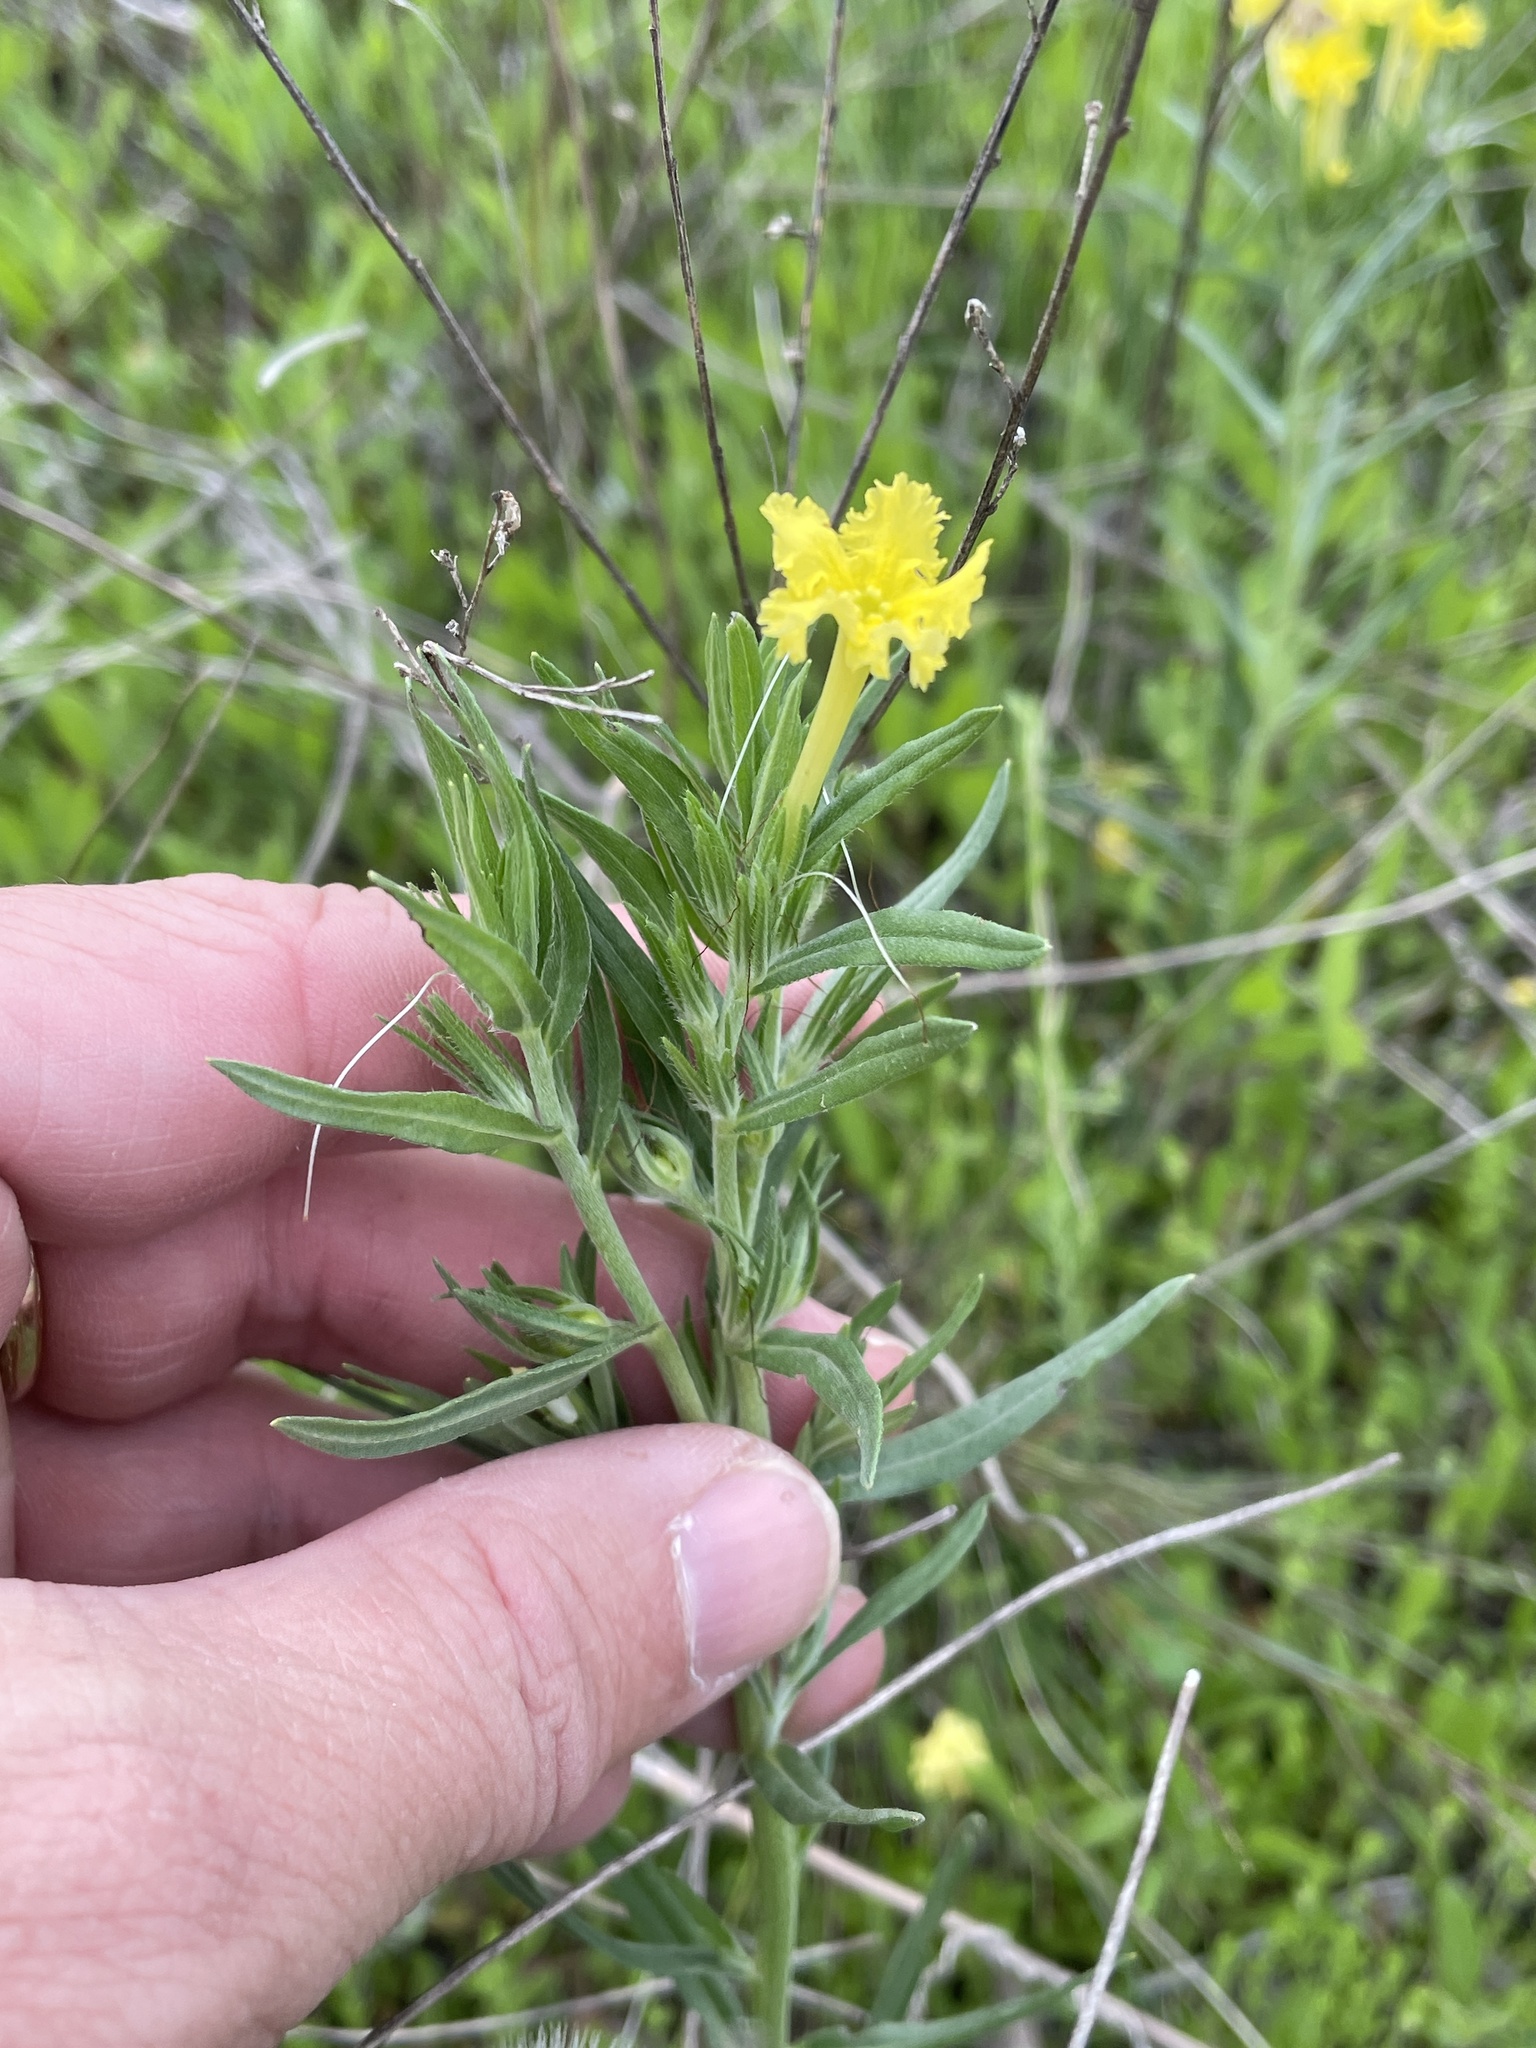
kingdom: Plantae
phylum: Tracheophyta
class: Magnoliopsida
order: Boraginales
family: Boraginaceae
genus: Lithospermum
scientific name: Lithospermum incisum
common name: Fringed gromwell
